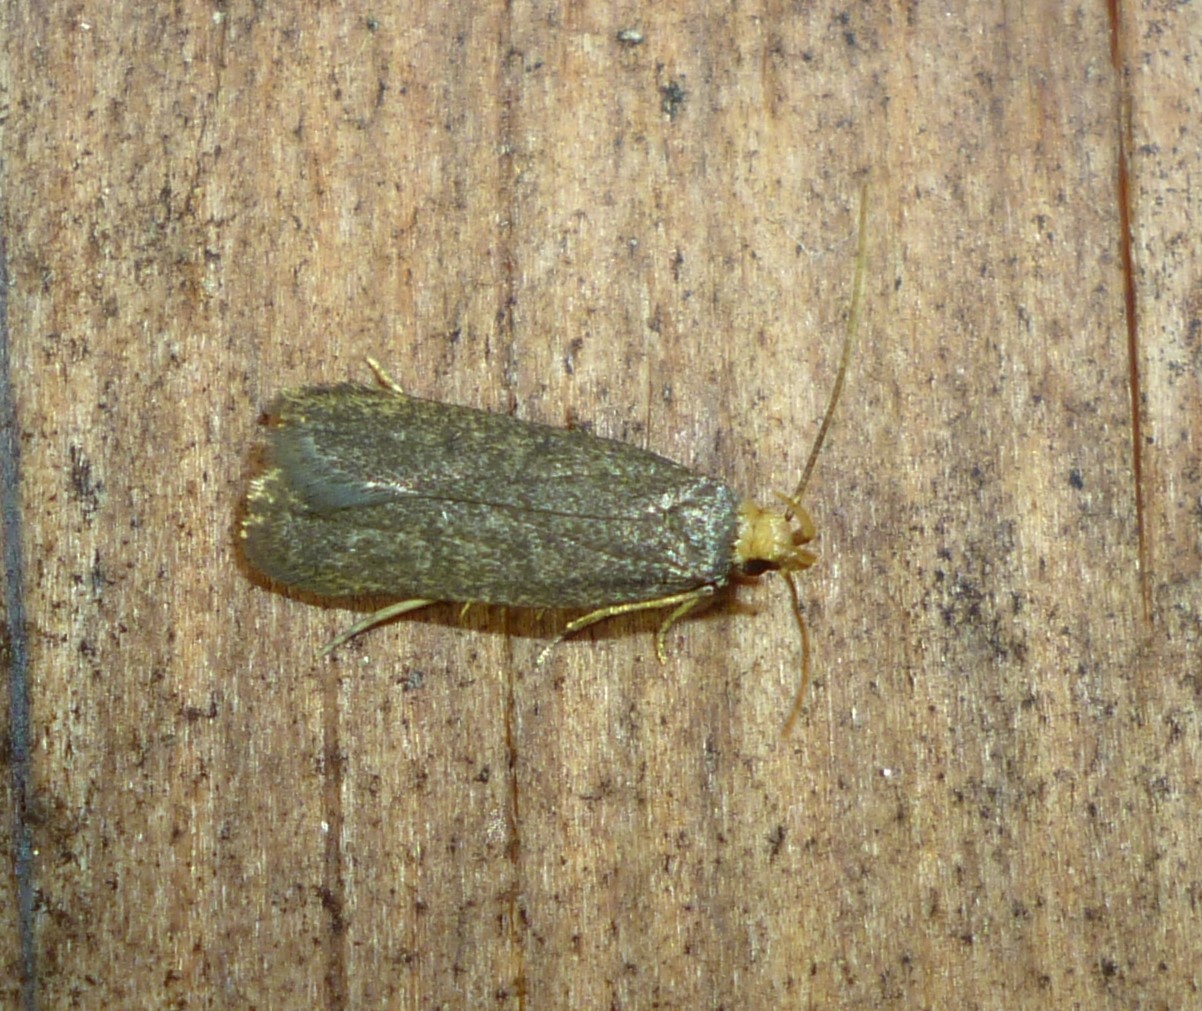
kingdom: Animalia
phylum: Arthropoda
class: Insecta
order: Lepidoptera
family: Autostichidae
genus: Glyphidocera
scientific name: Glyphidocera lithodoxa
